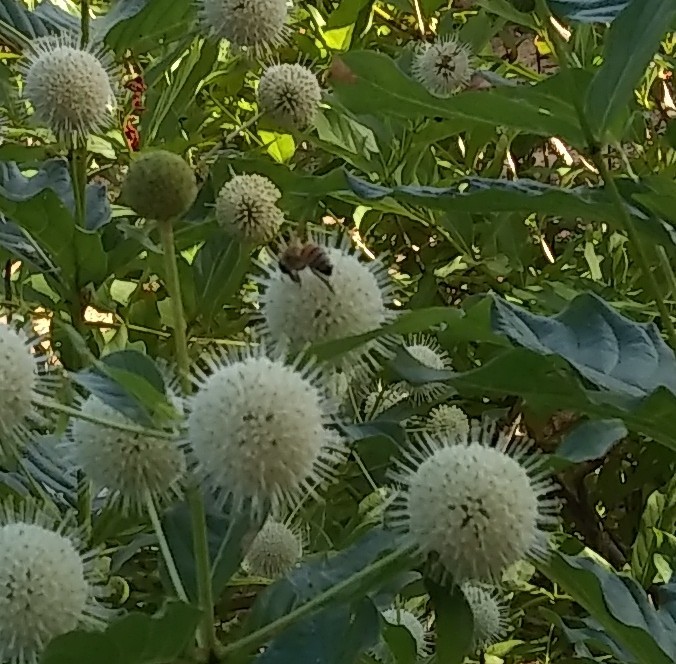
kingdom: Animalia
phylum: Arthropoda
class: Insecta
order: Hymenoptera
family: Apidae
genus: Apis
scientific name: Apis mellifera
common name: Honey bee
